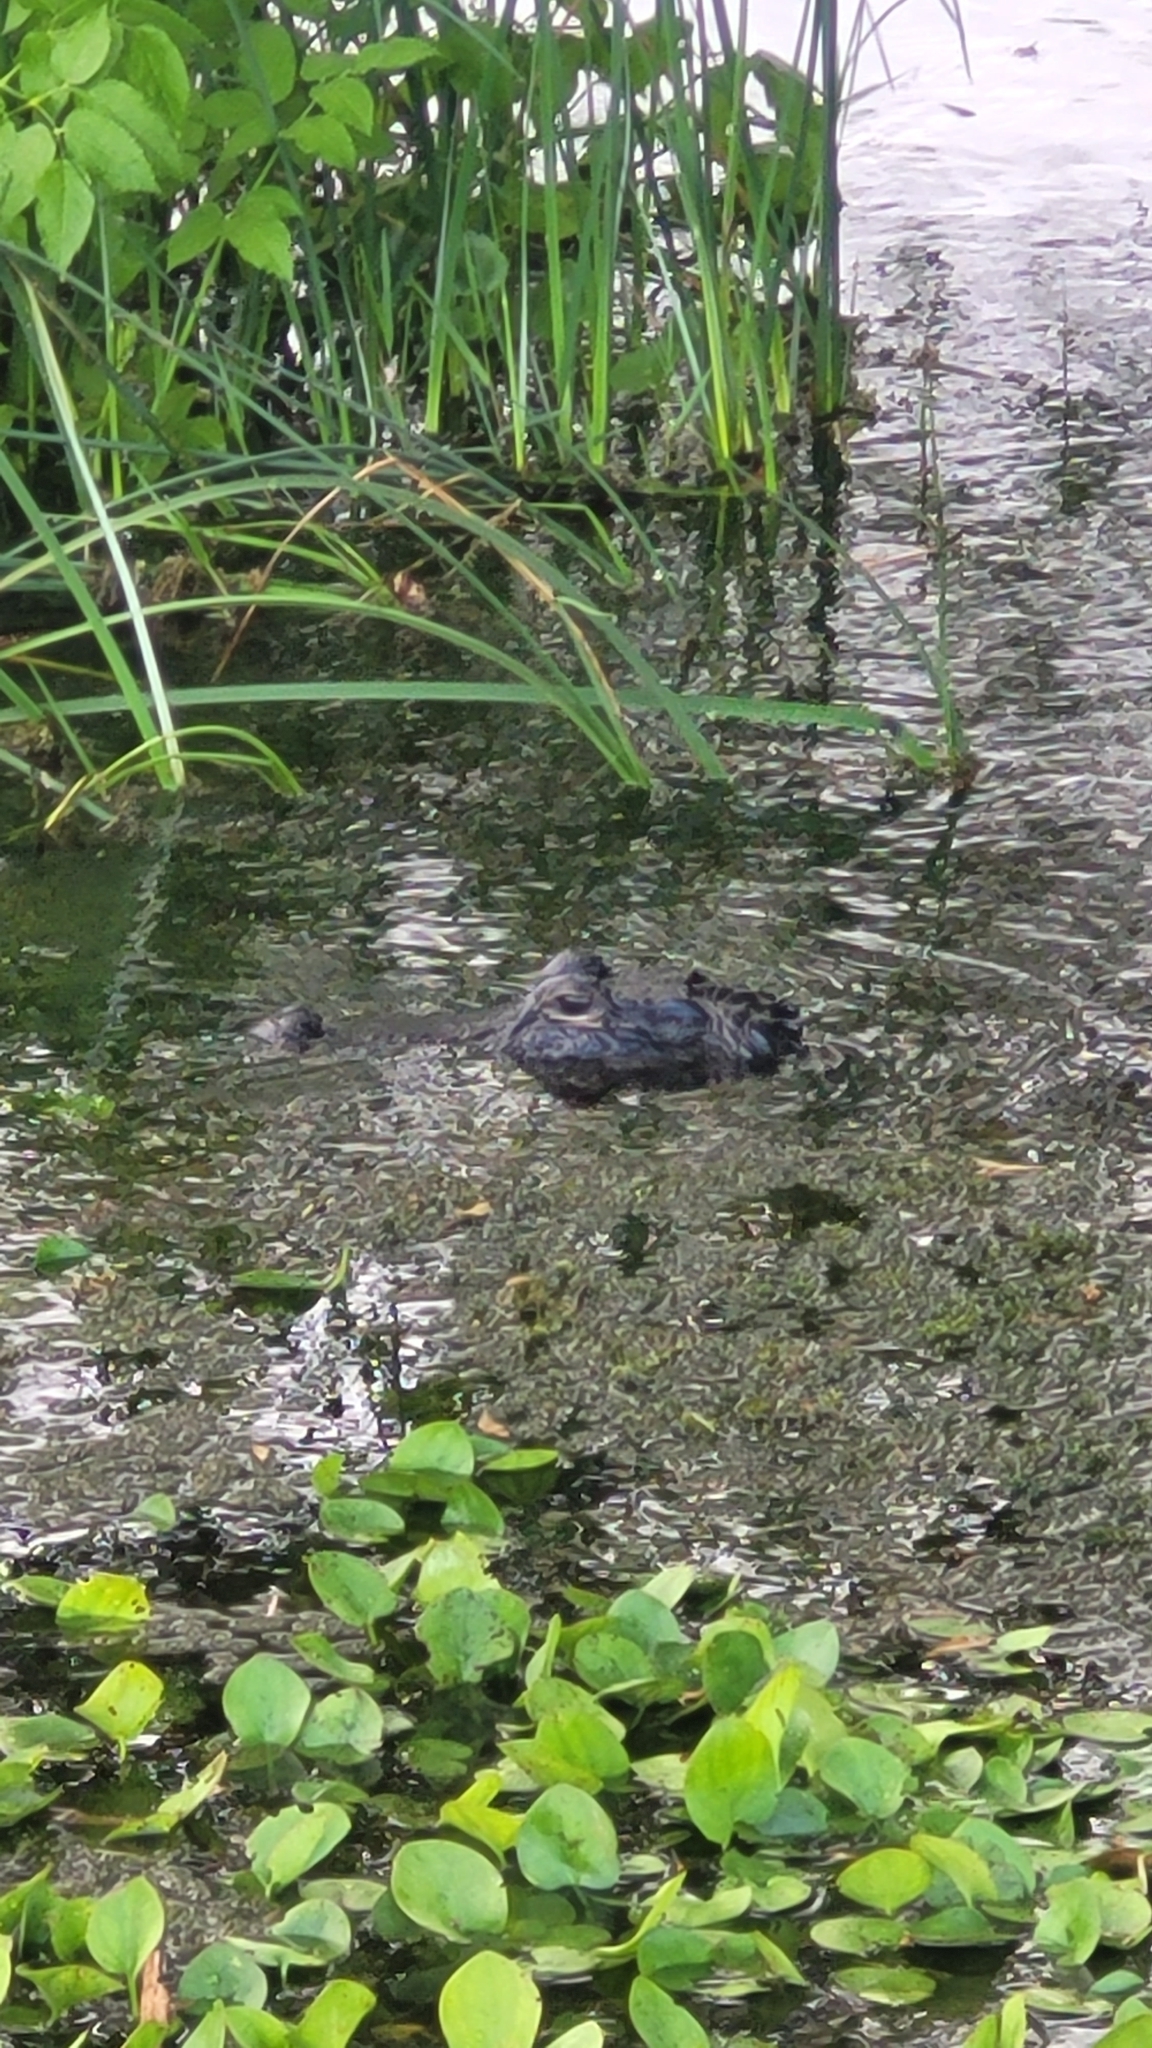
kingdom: Animalia
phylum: Chordata
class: Crocodylia
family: Alligatoridae
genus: Alligator
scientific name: Alligator mississippiensis
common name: American alligator
